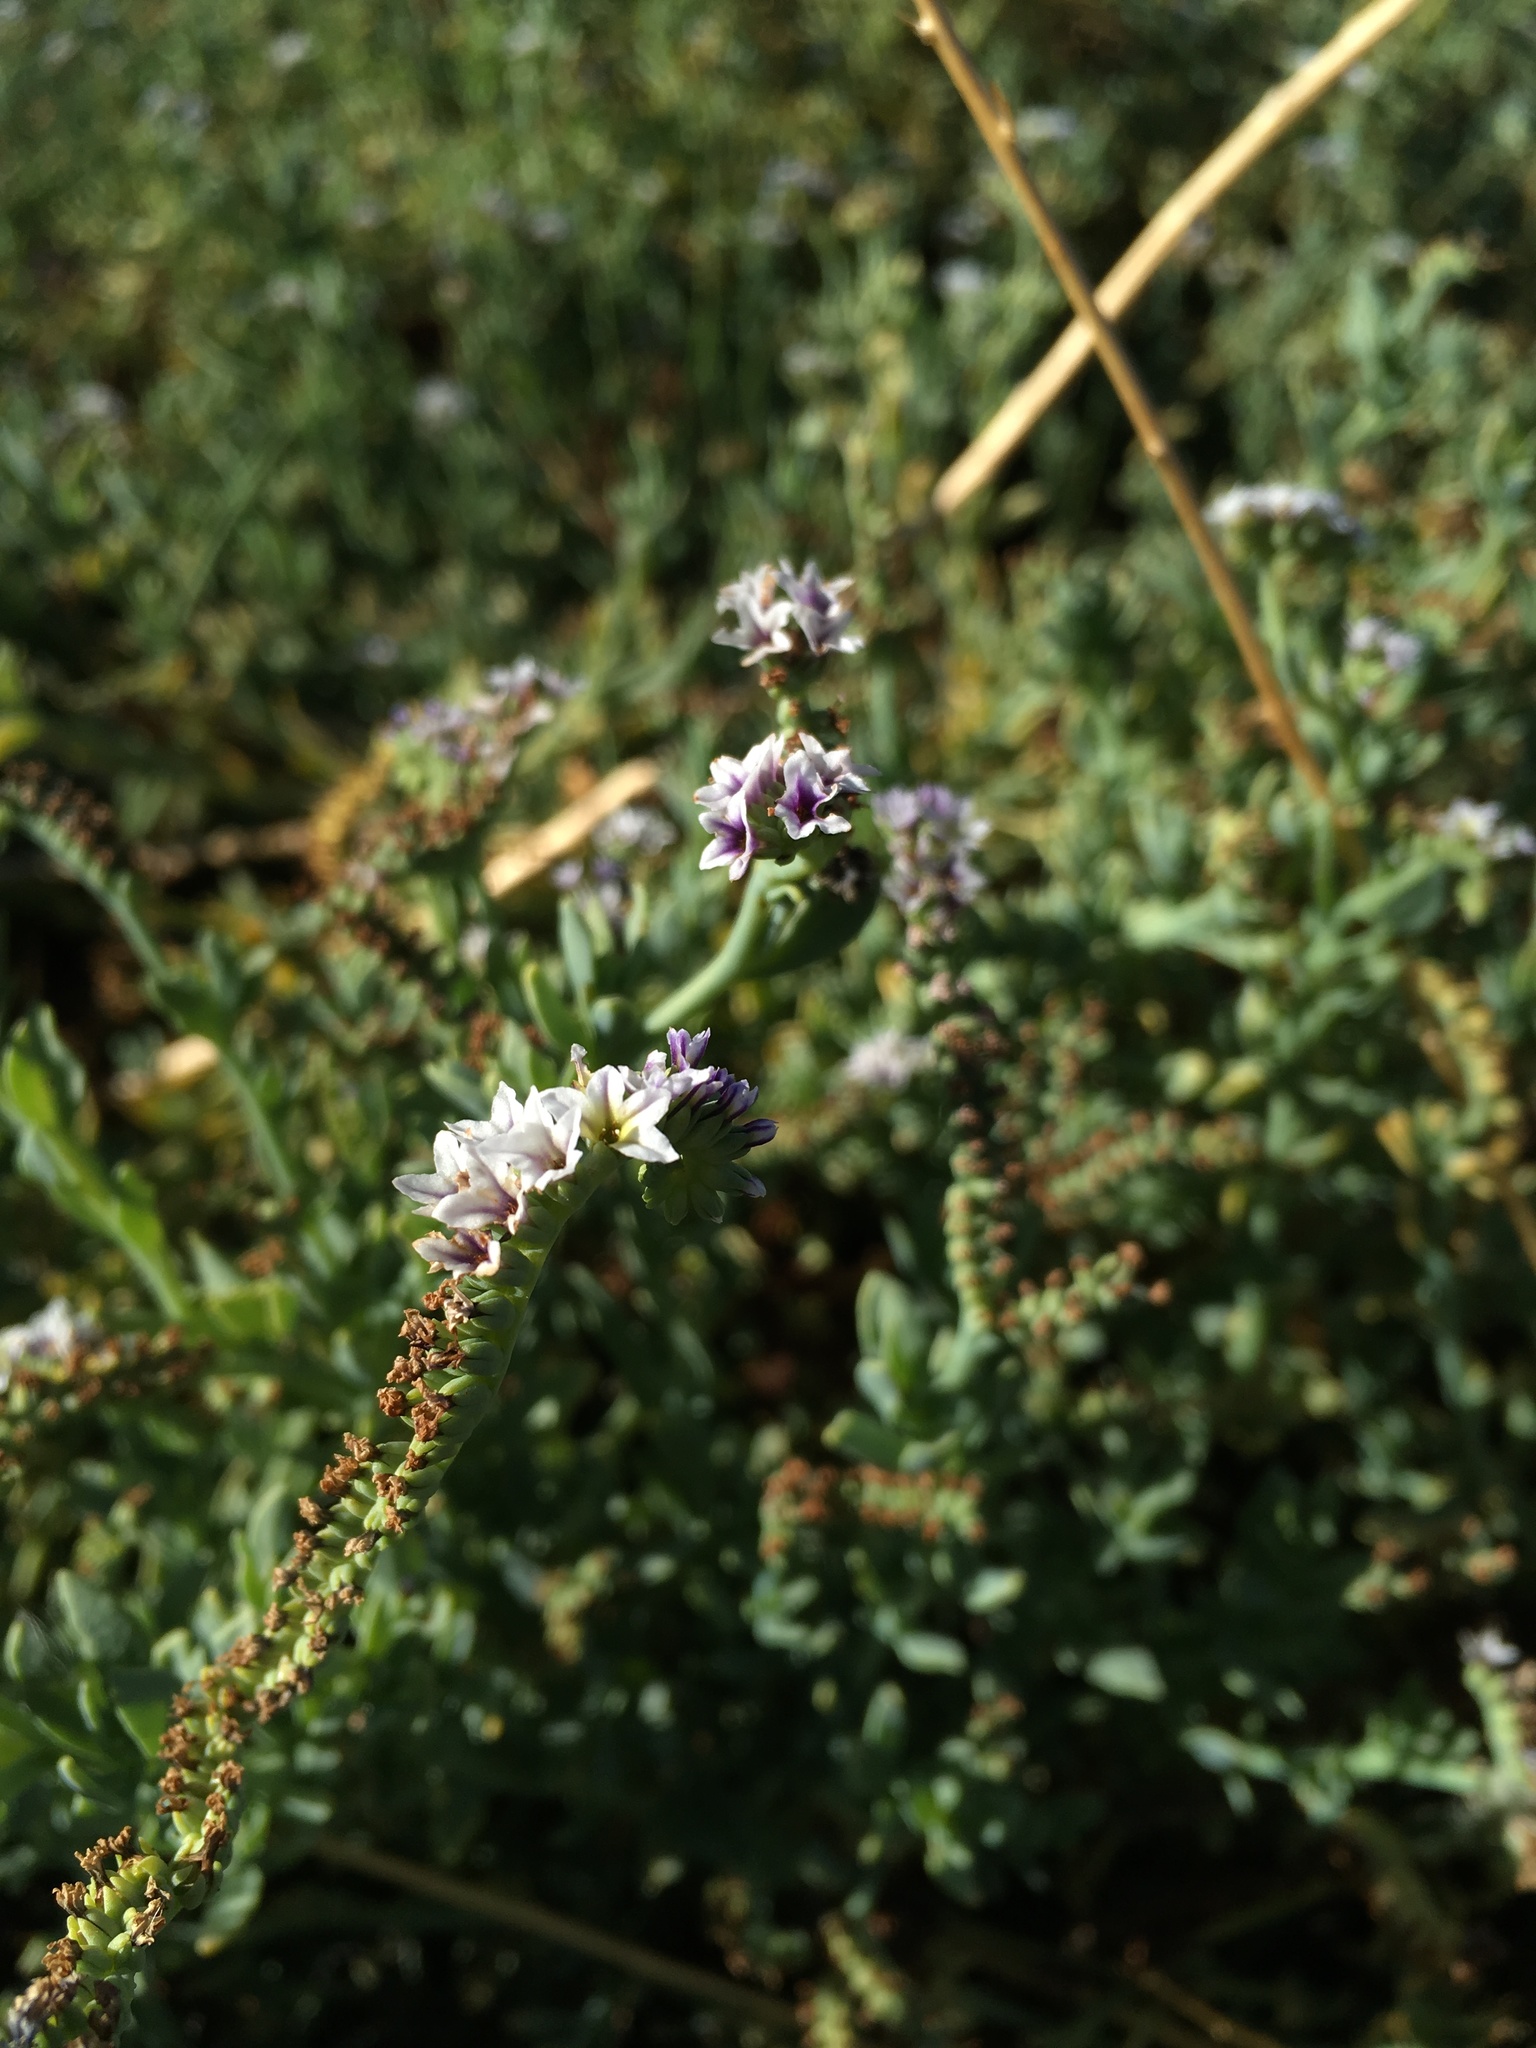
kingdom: Plantae
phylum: Tracheophyta
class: Magnoliopsida
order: Boraginales
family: Heliotropiaceae
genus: Heliotropium
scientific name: Heliotropium curassavicum
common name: Seaside heliotrope
